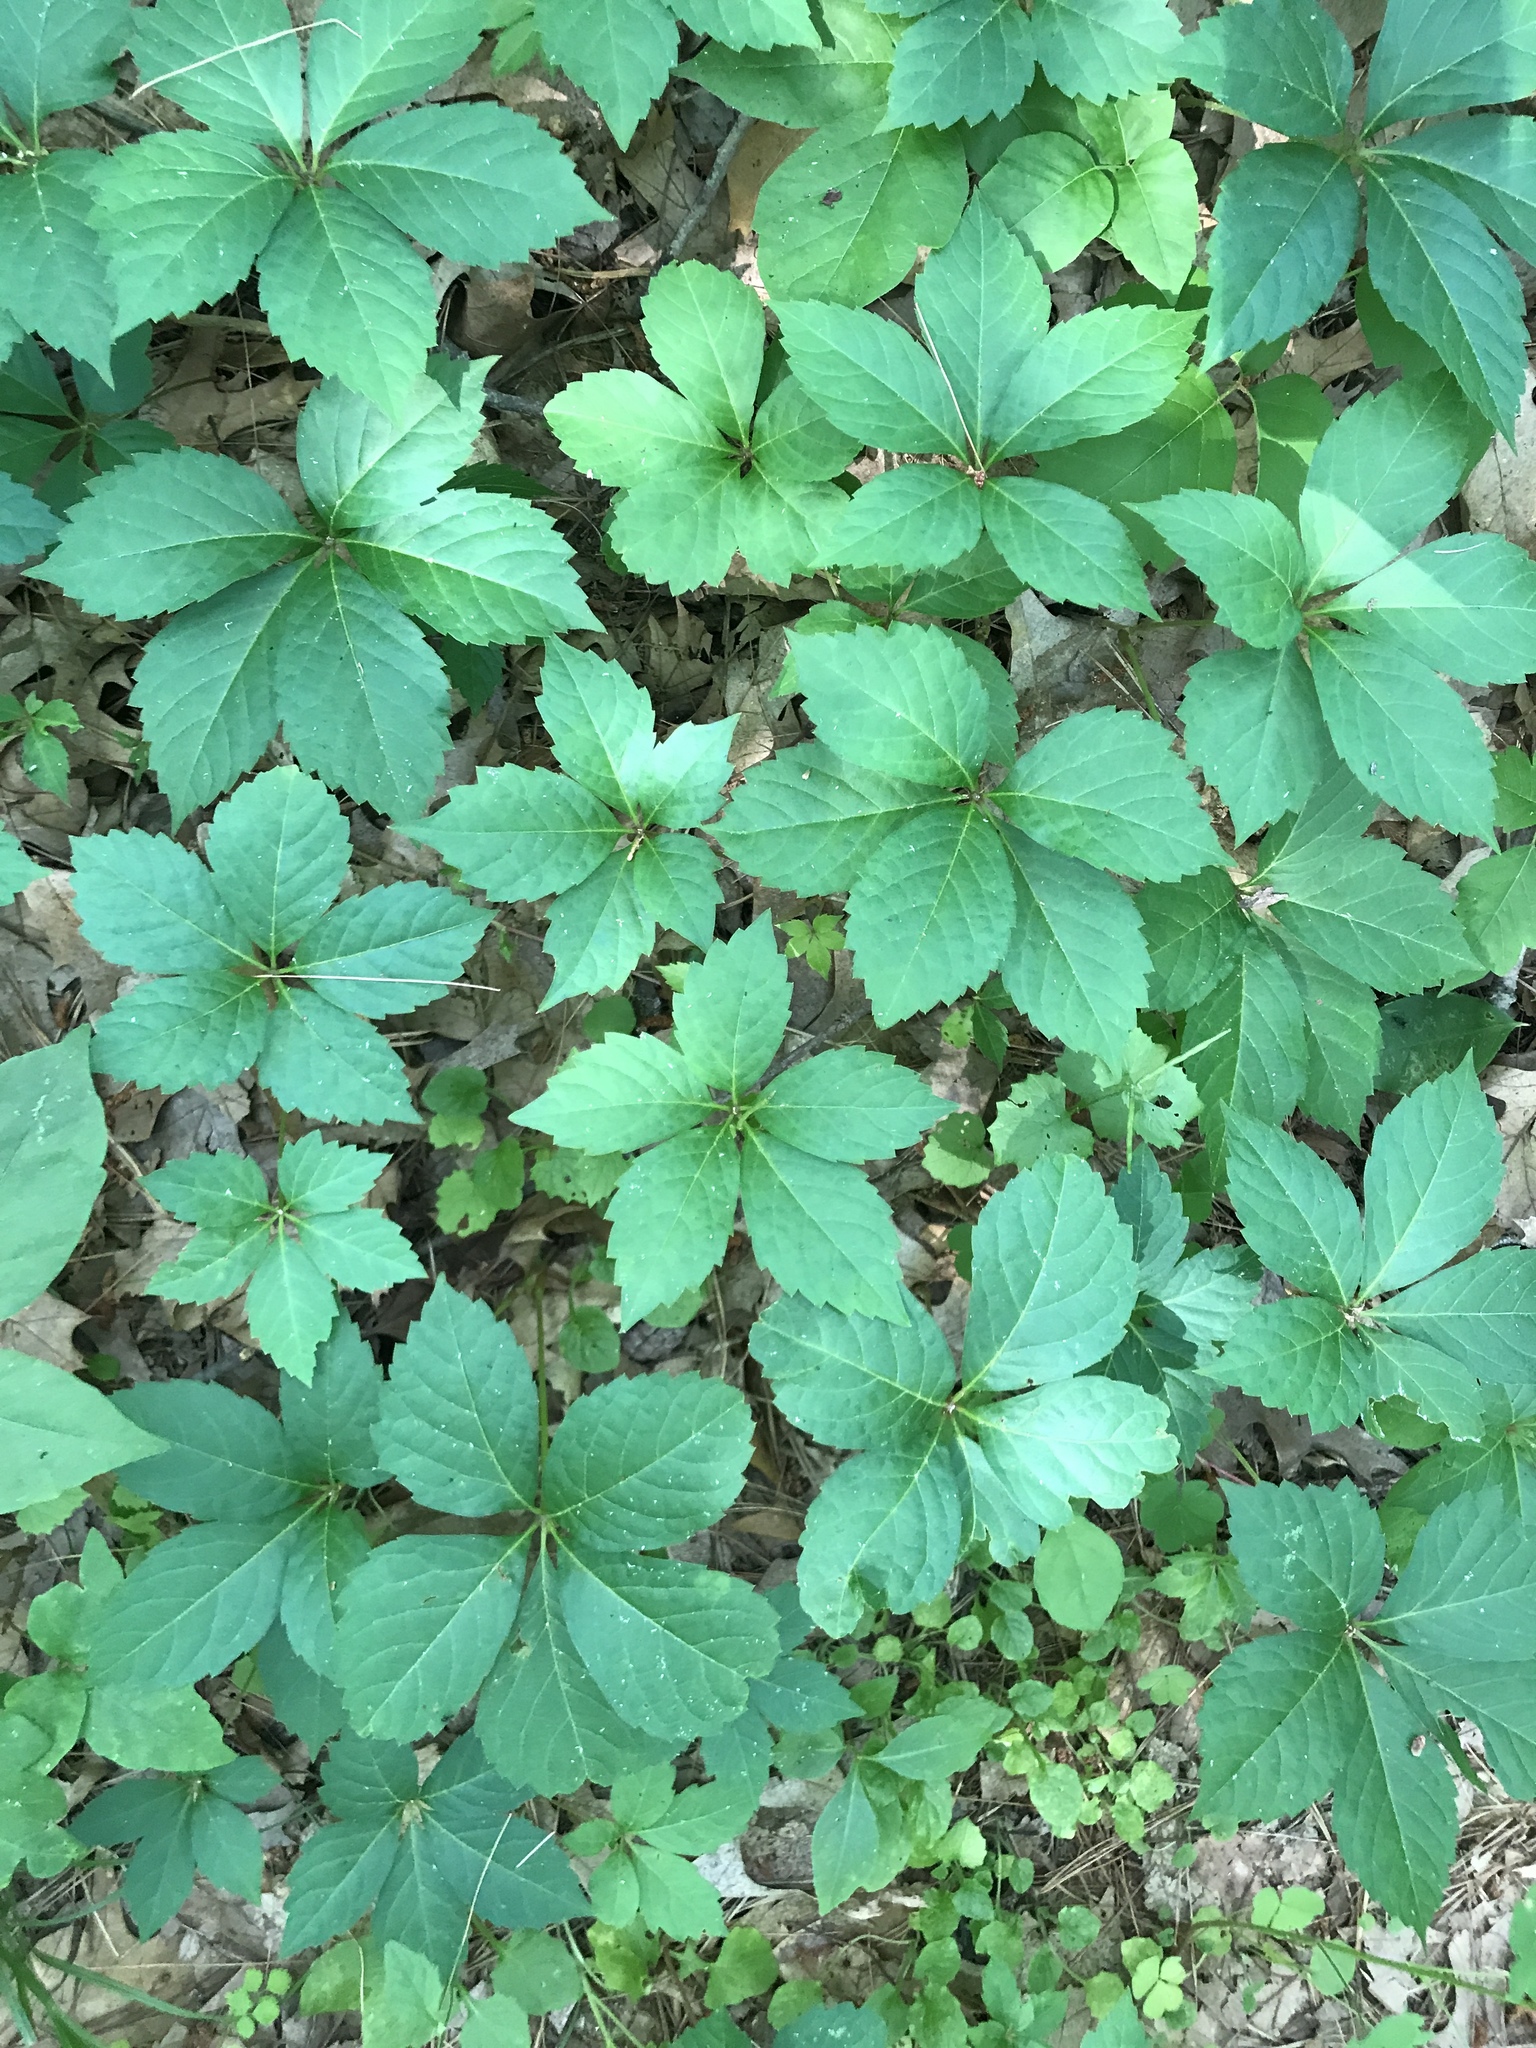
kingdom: Plantae
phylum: Tracheophyta
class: Magnoliopsida
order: Vitales
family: Vitaceae
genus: Parthenocissus
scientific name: Parthenocissus quinquefolia
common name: Virginia-creeper
